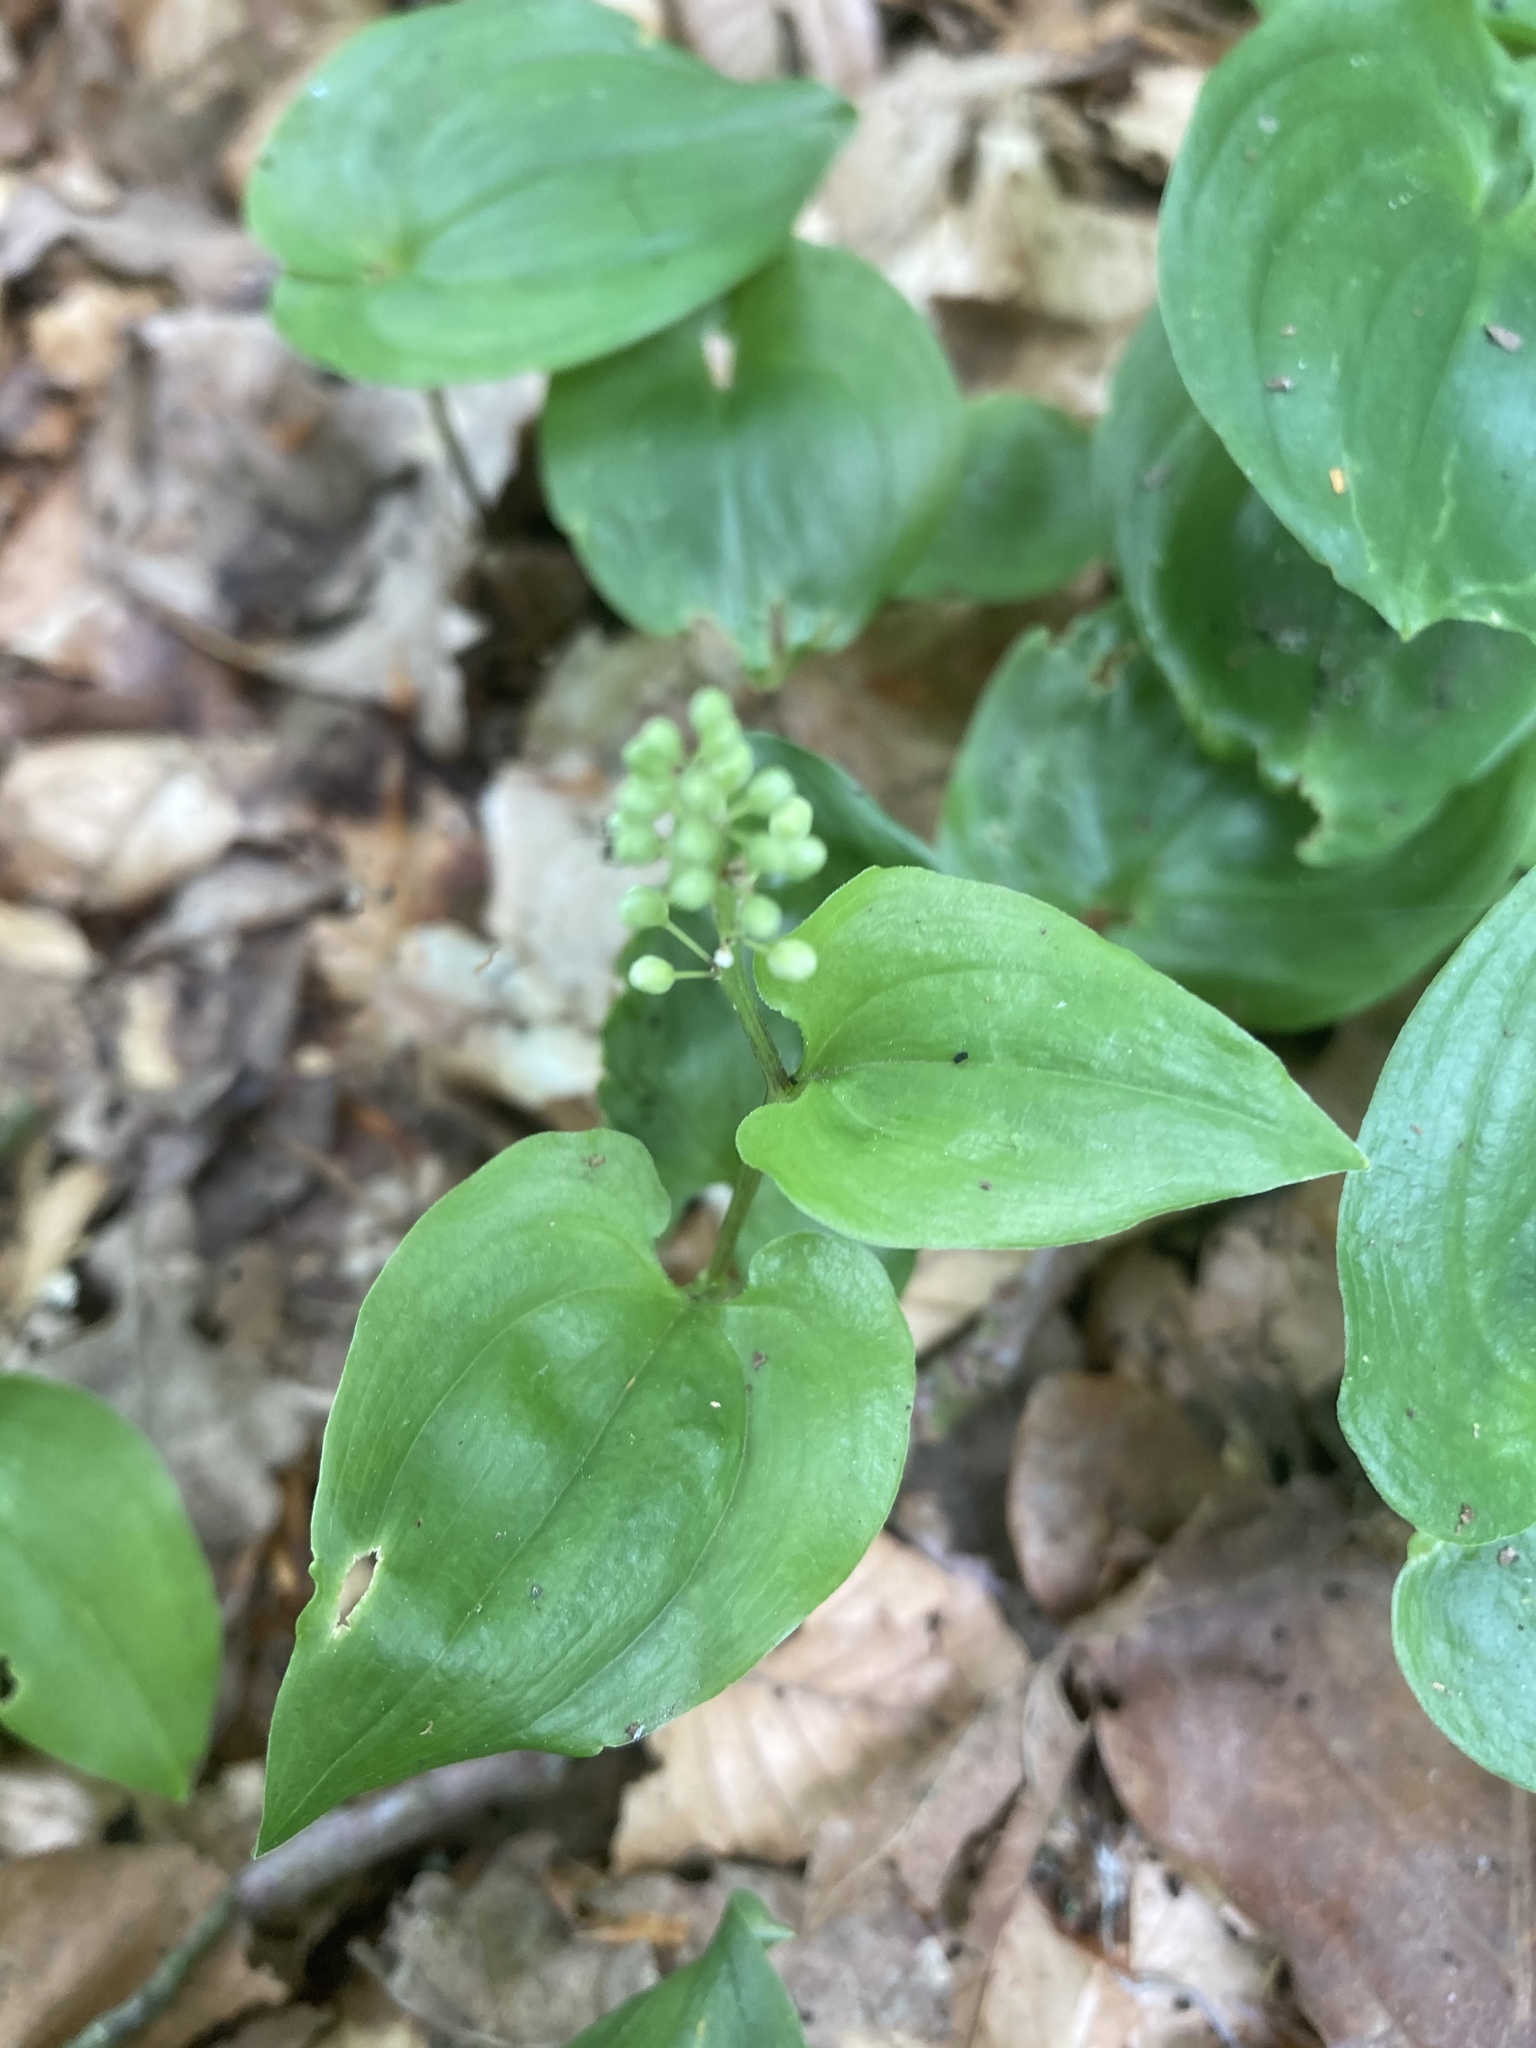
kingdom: Plantae
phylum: Tracheophyta
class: Liliopsida
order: Asparagales
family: Asparagaceae
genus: Maianthemum
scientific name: Maianthemum bifolium
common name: May lily
